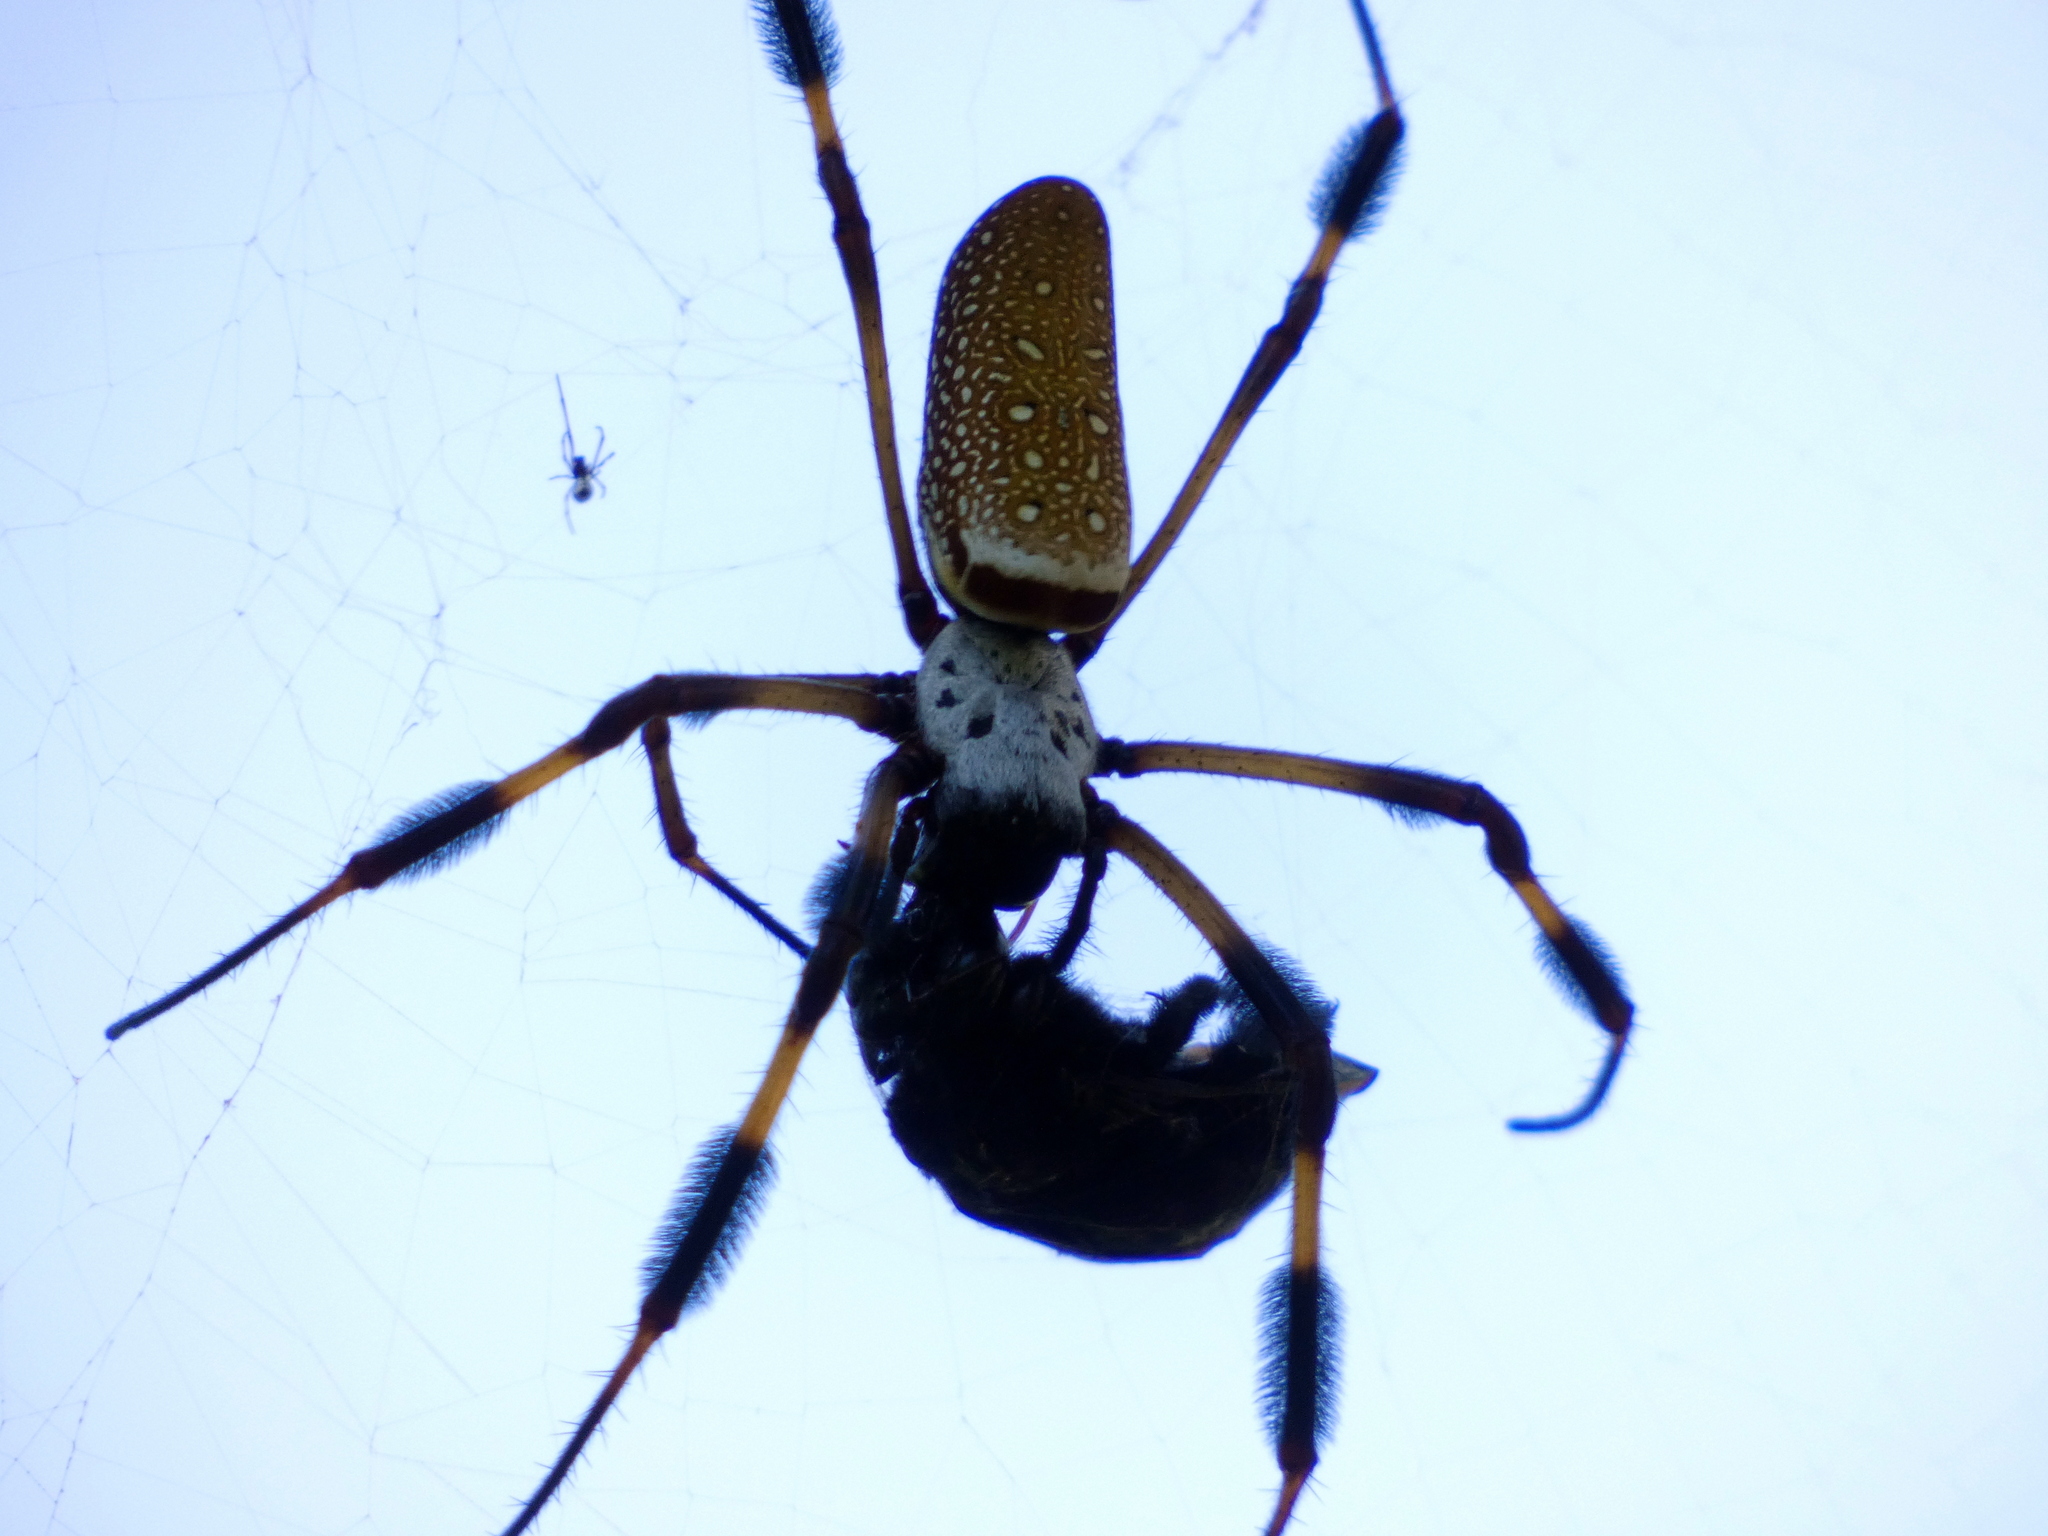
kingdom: Animalia
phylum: Arthropoda
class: Arachnida
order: Araneae
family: Araneidae
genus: Trichonephila
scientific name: Trichonephila clavipes
